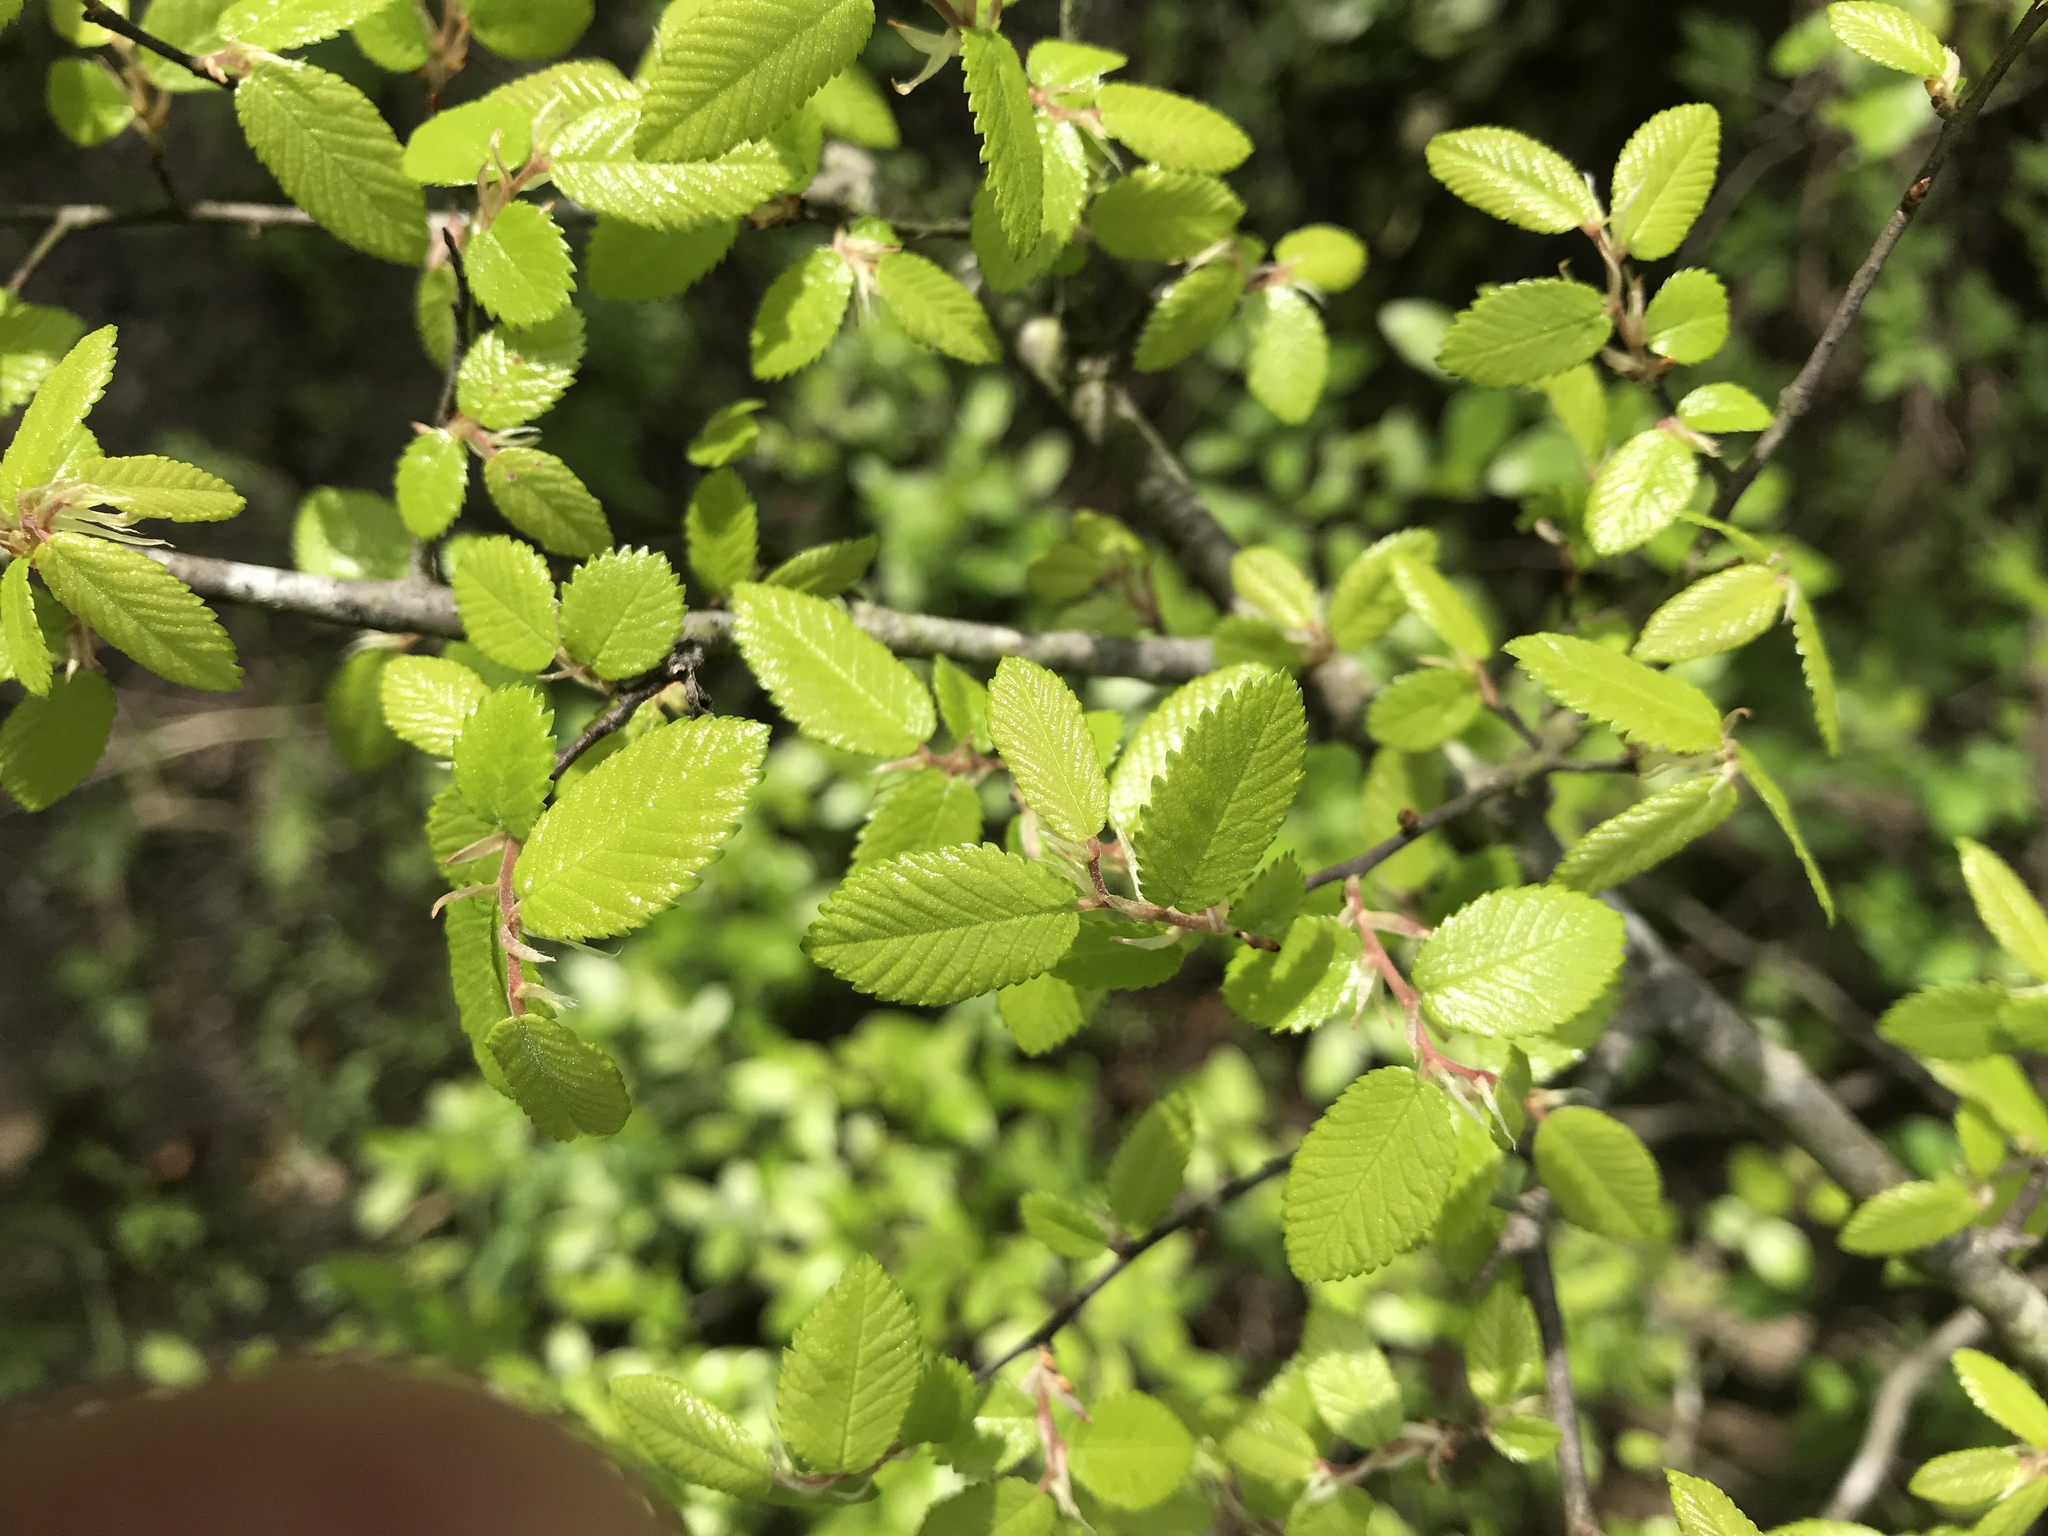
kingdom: Plantae
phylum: Tracheophyta
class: Magnoliopsida
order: Rosales
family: Ulmaceae
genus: Ulmus
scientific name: Ulmus crassifolia
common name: Basket elm
